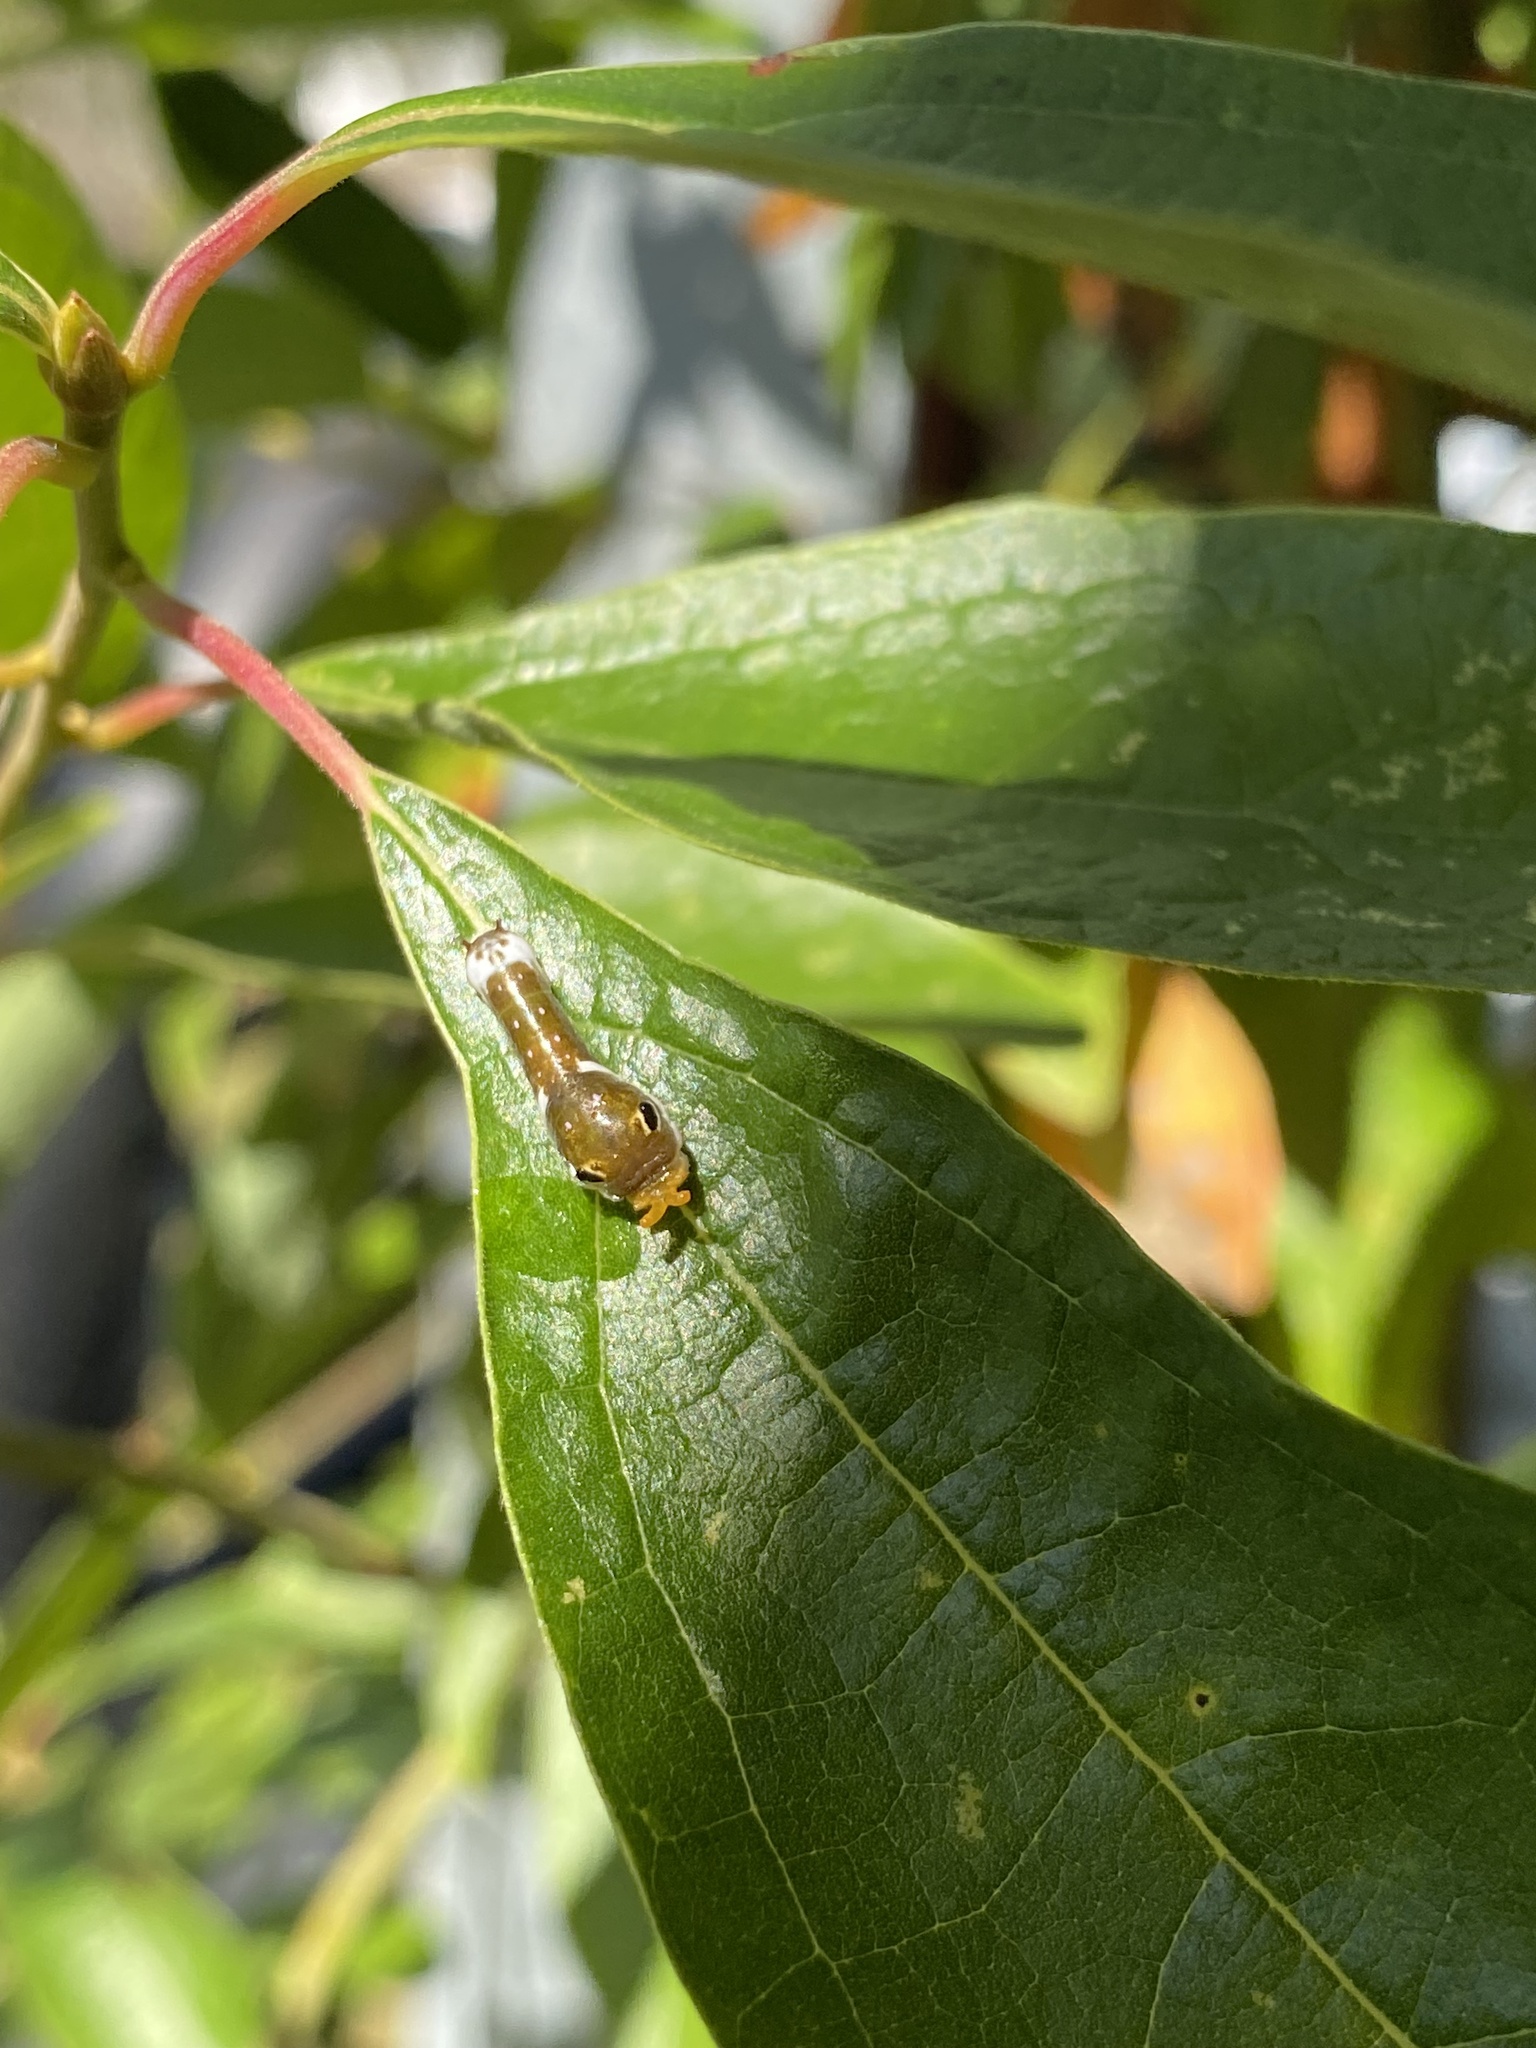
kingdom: Animalia
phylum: Arthropoda
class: Insecta
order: Lepidoptera
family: Papilionidae
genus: Papilio
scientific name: Papilio troilus
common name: Spicebush swallowtail
